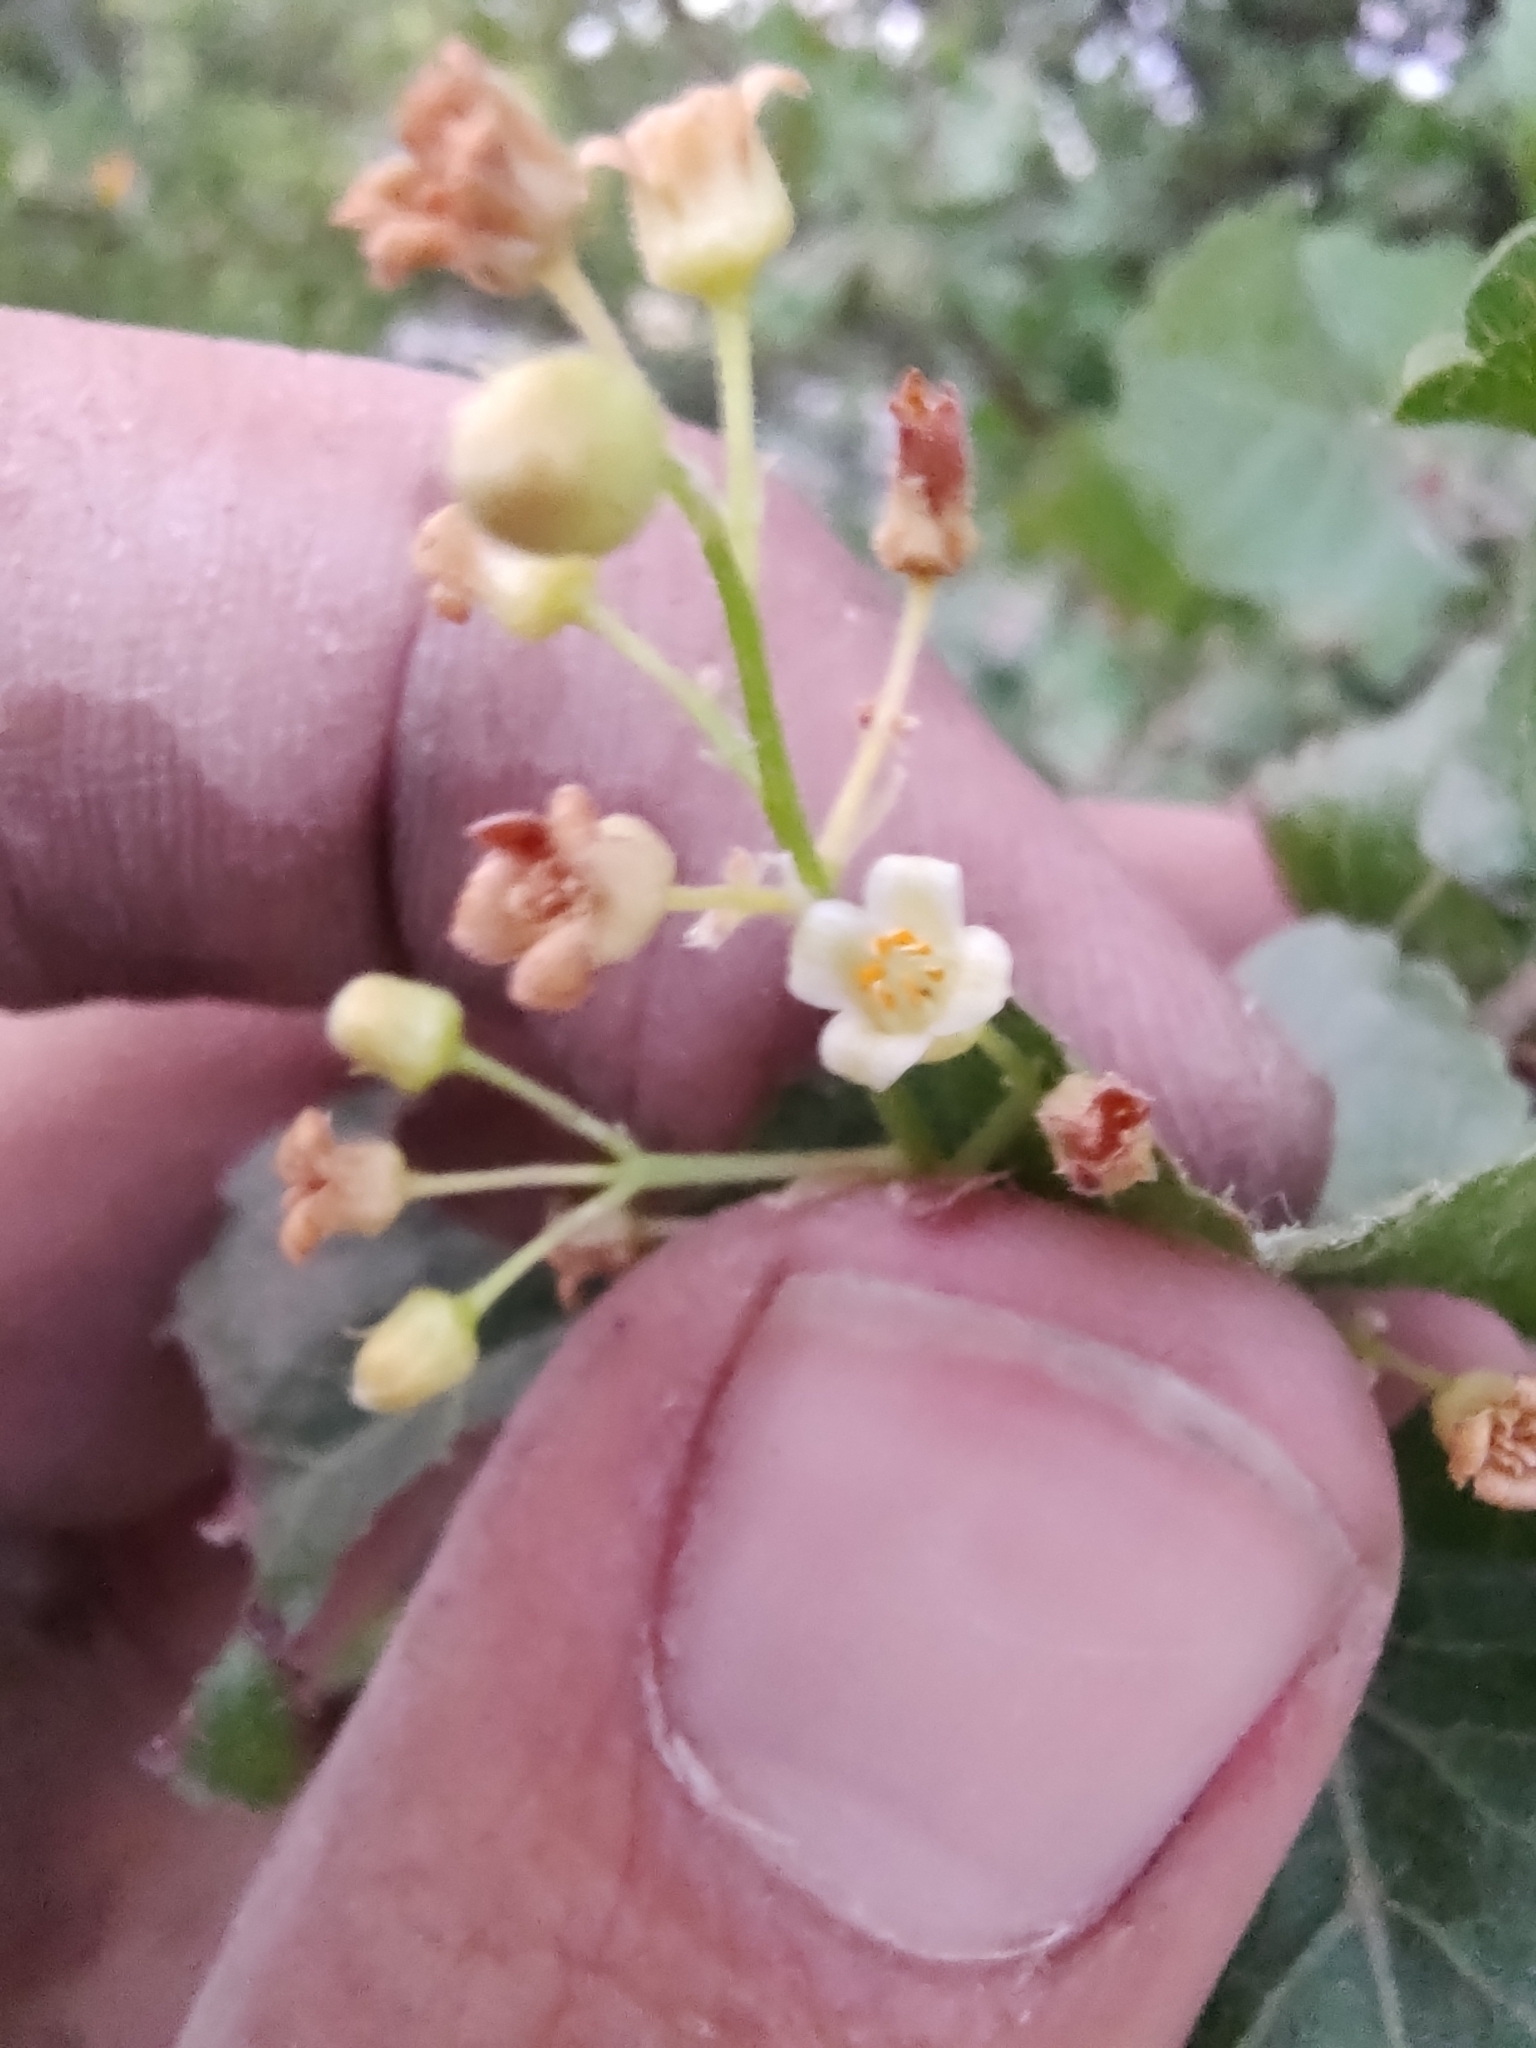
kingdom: Plantae
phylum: Tracheophyta
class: Magnoliopsida
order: Sapindales
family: Burseraceae
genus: Bursera
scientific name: Bursera epinnata
